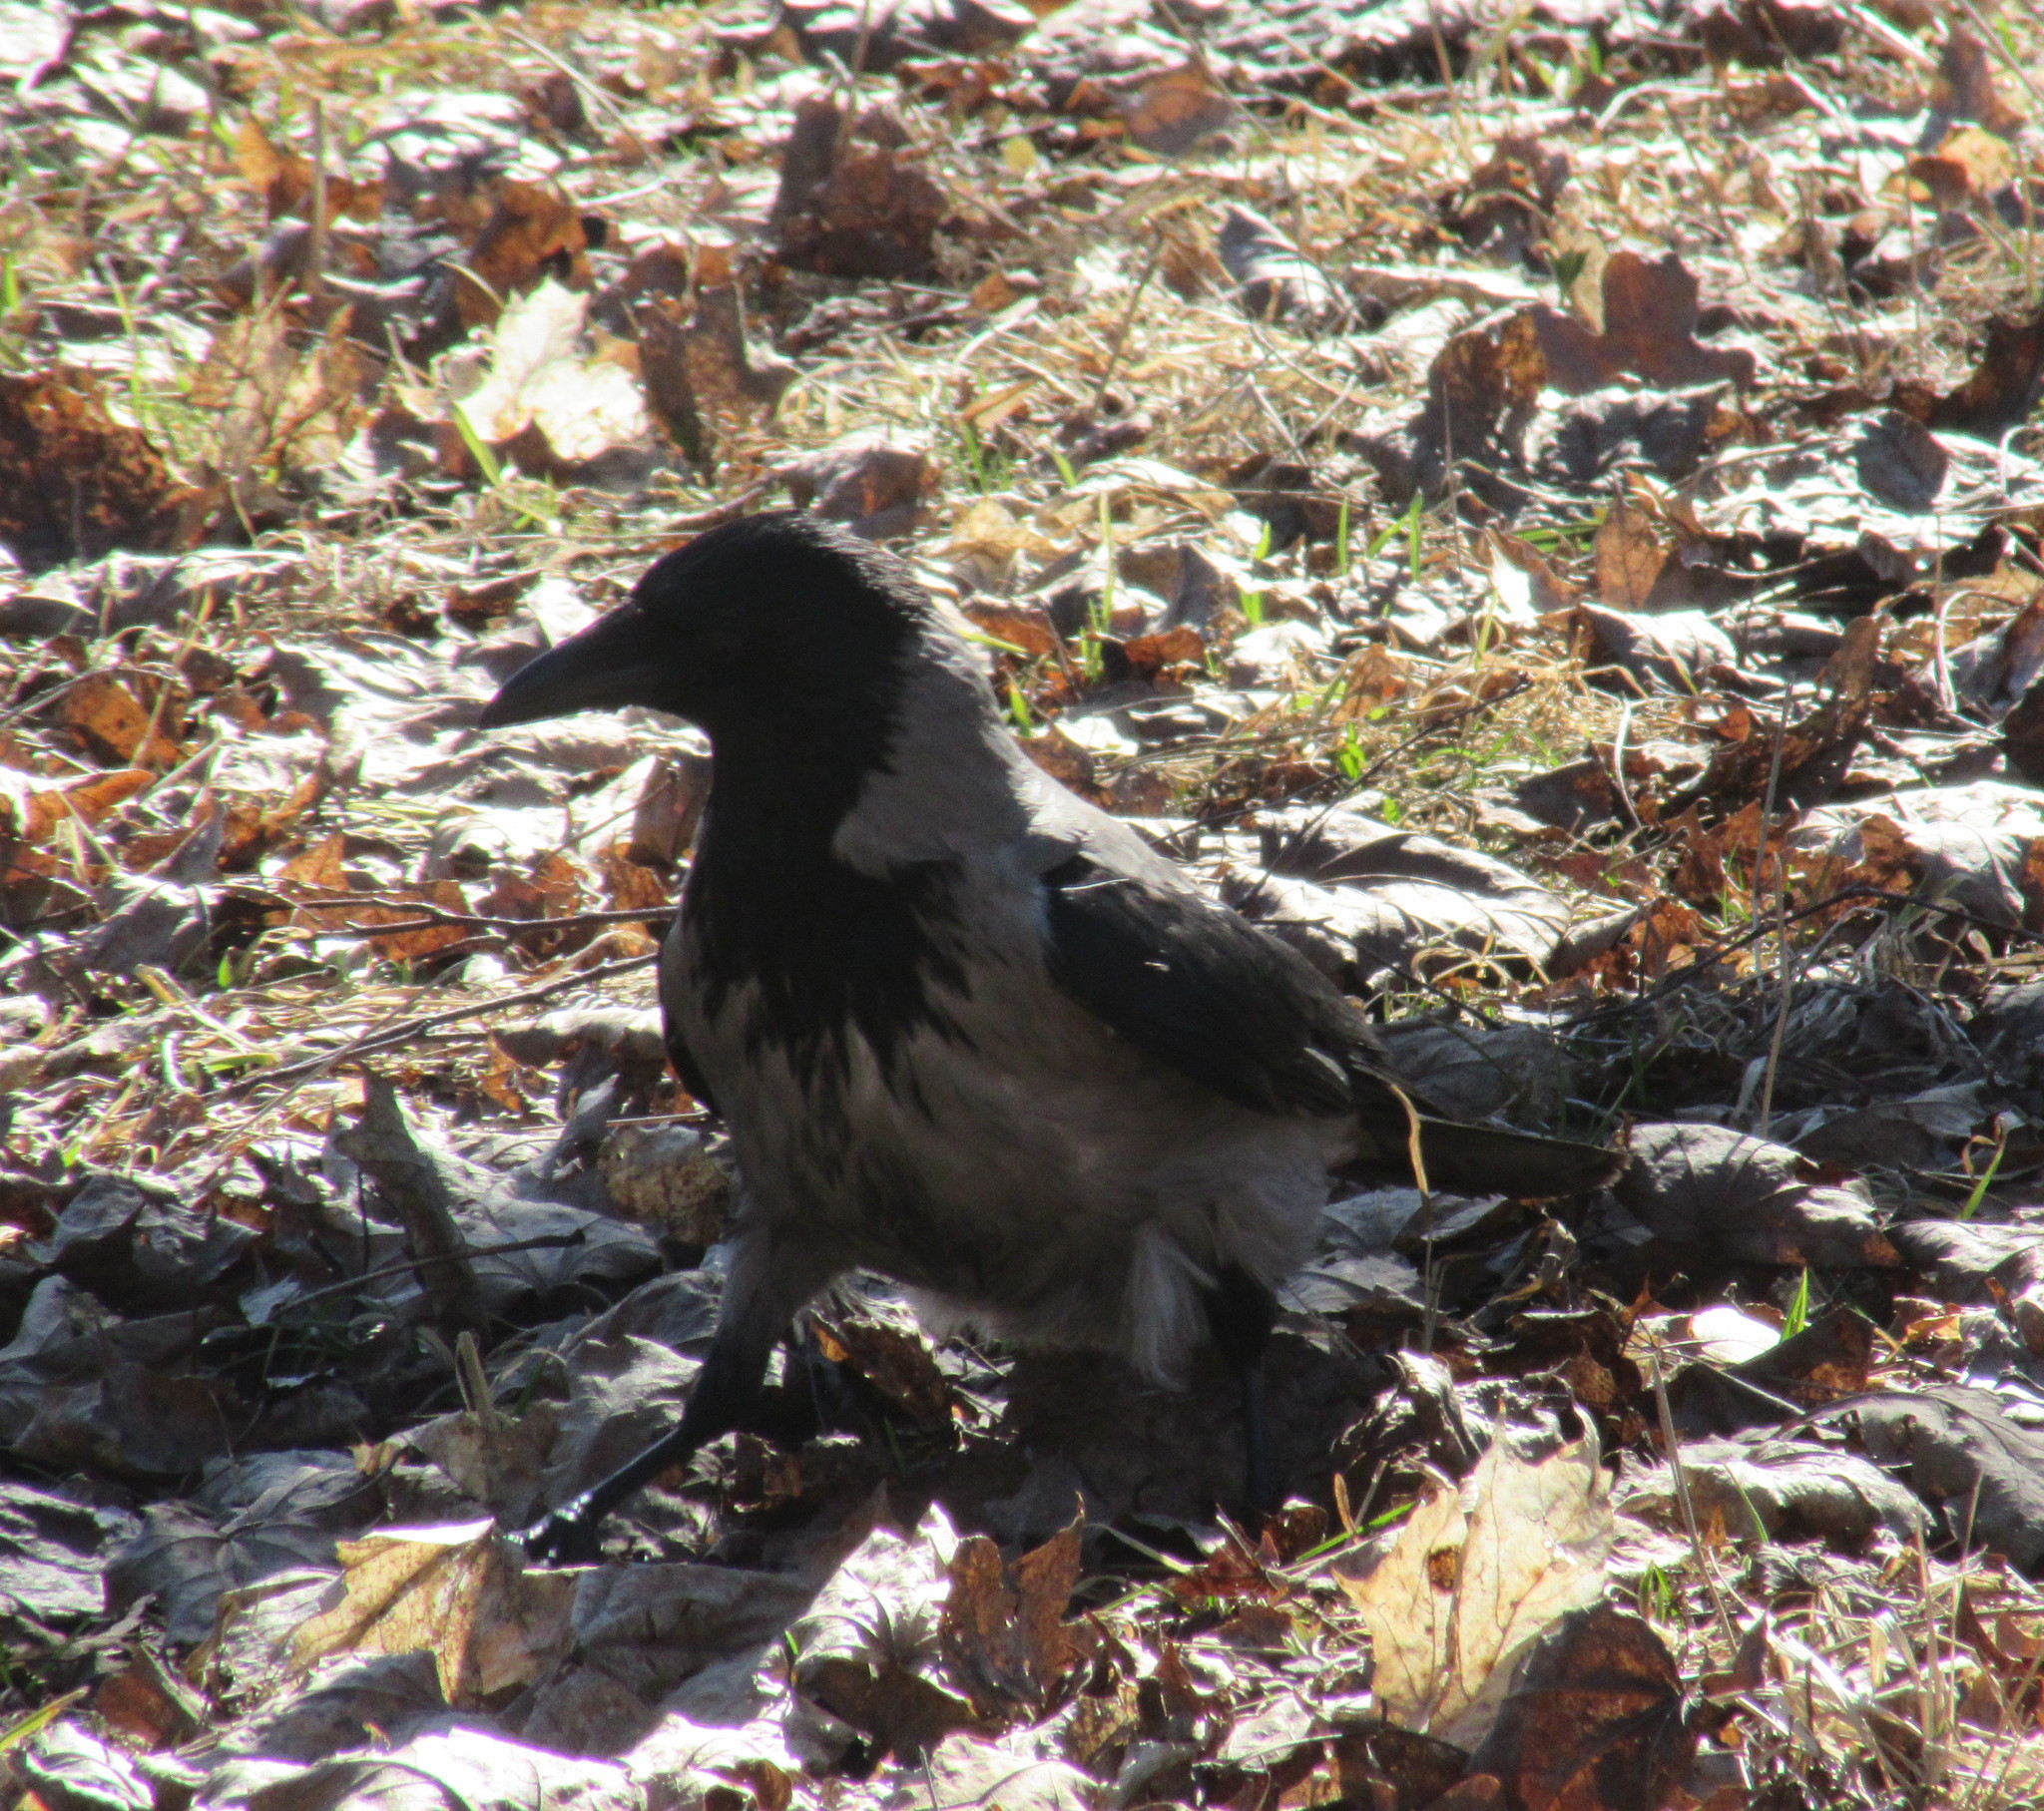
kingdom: Animalia
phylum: Chordata
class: Aves
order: Passeriformes
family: Corvidae
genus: Corvus
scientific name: Corvus cornix
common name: Hooded crow
